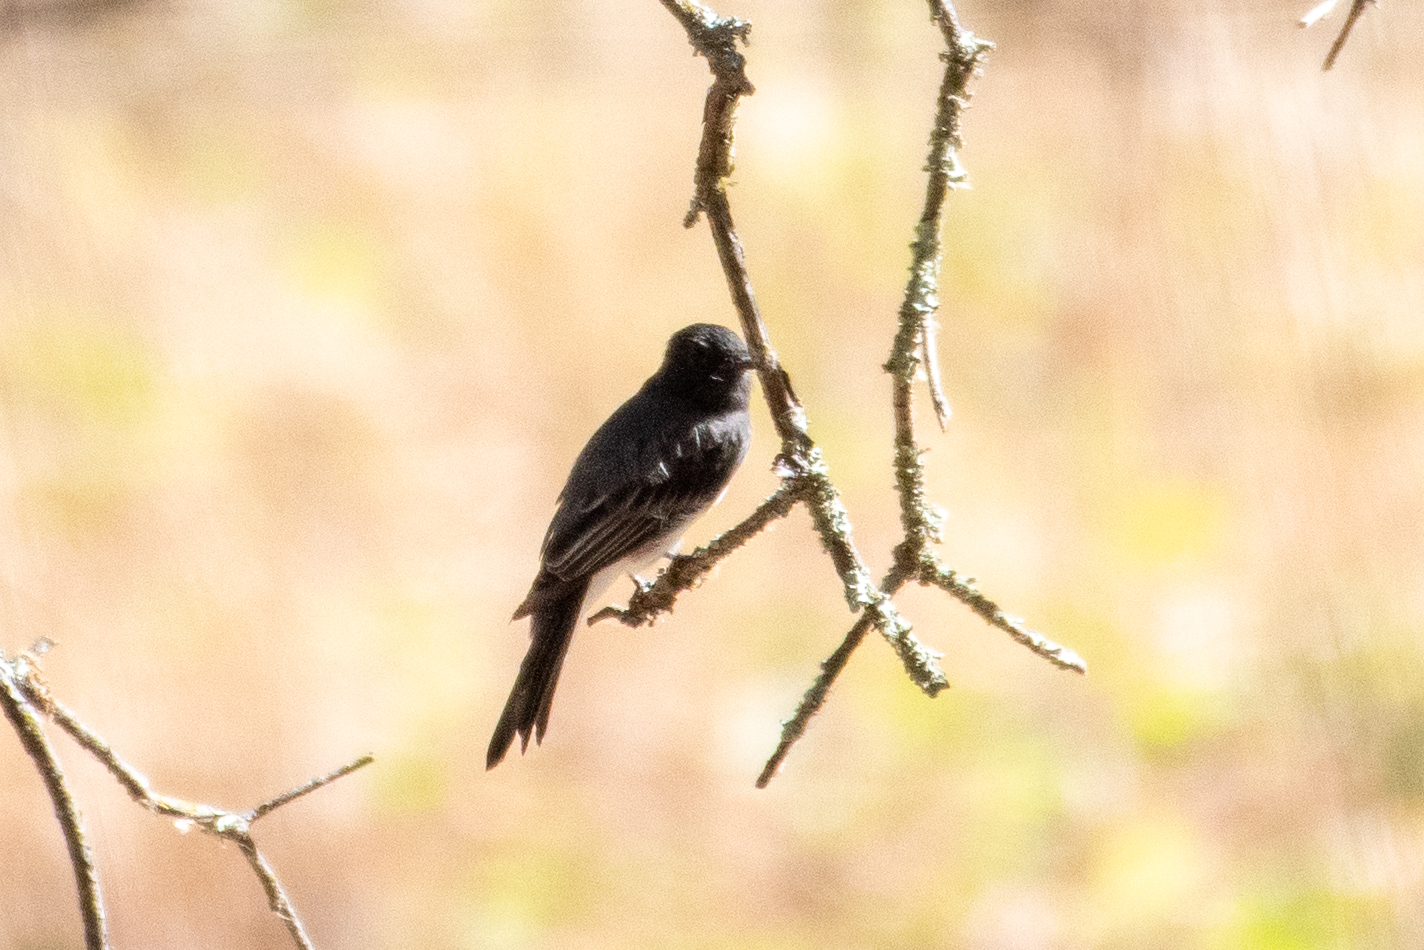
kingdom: Animalia
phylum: Chordata
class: Aves
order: Passeriformes
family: Tyrannidae
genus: Sayornis
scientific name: Sayornis nigricans
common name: Black phoebe
